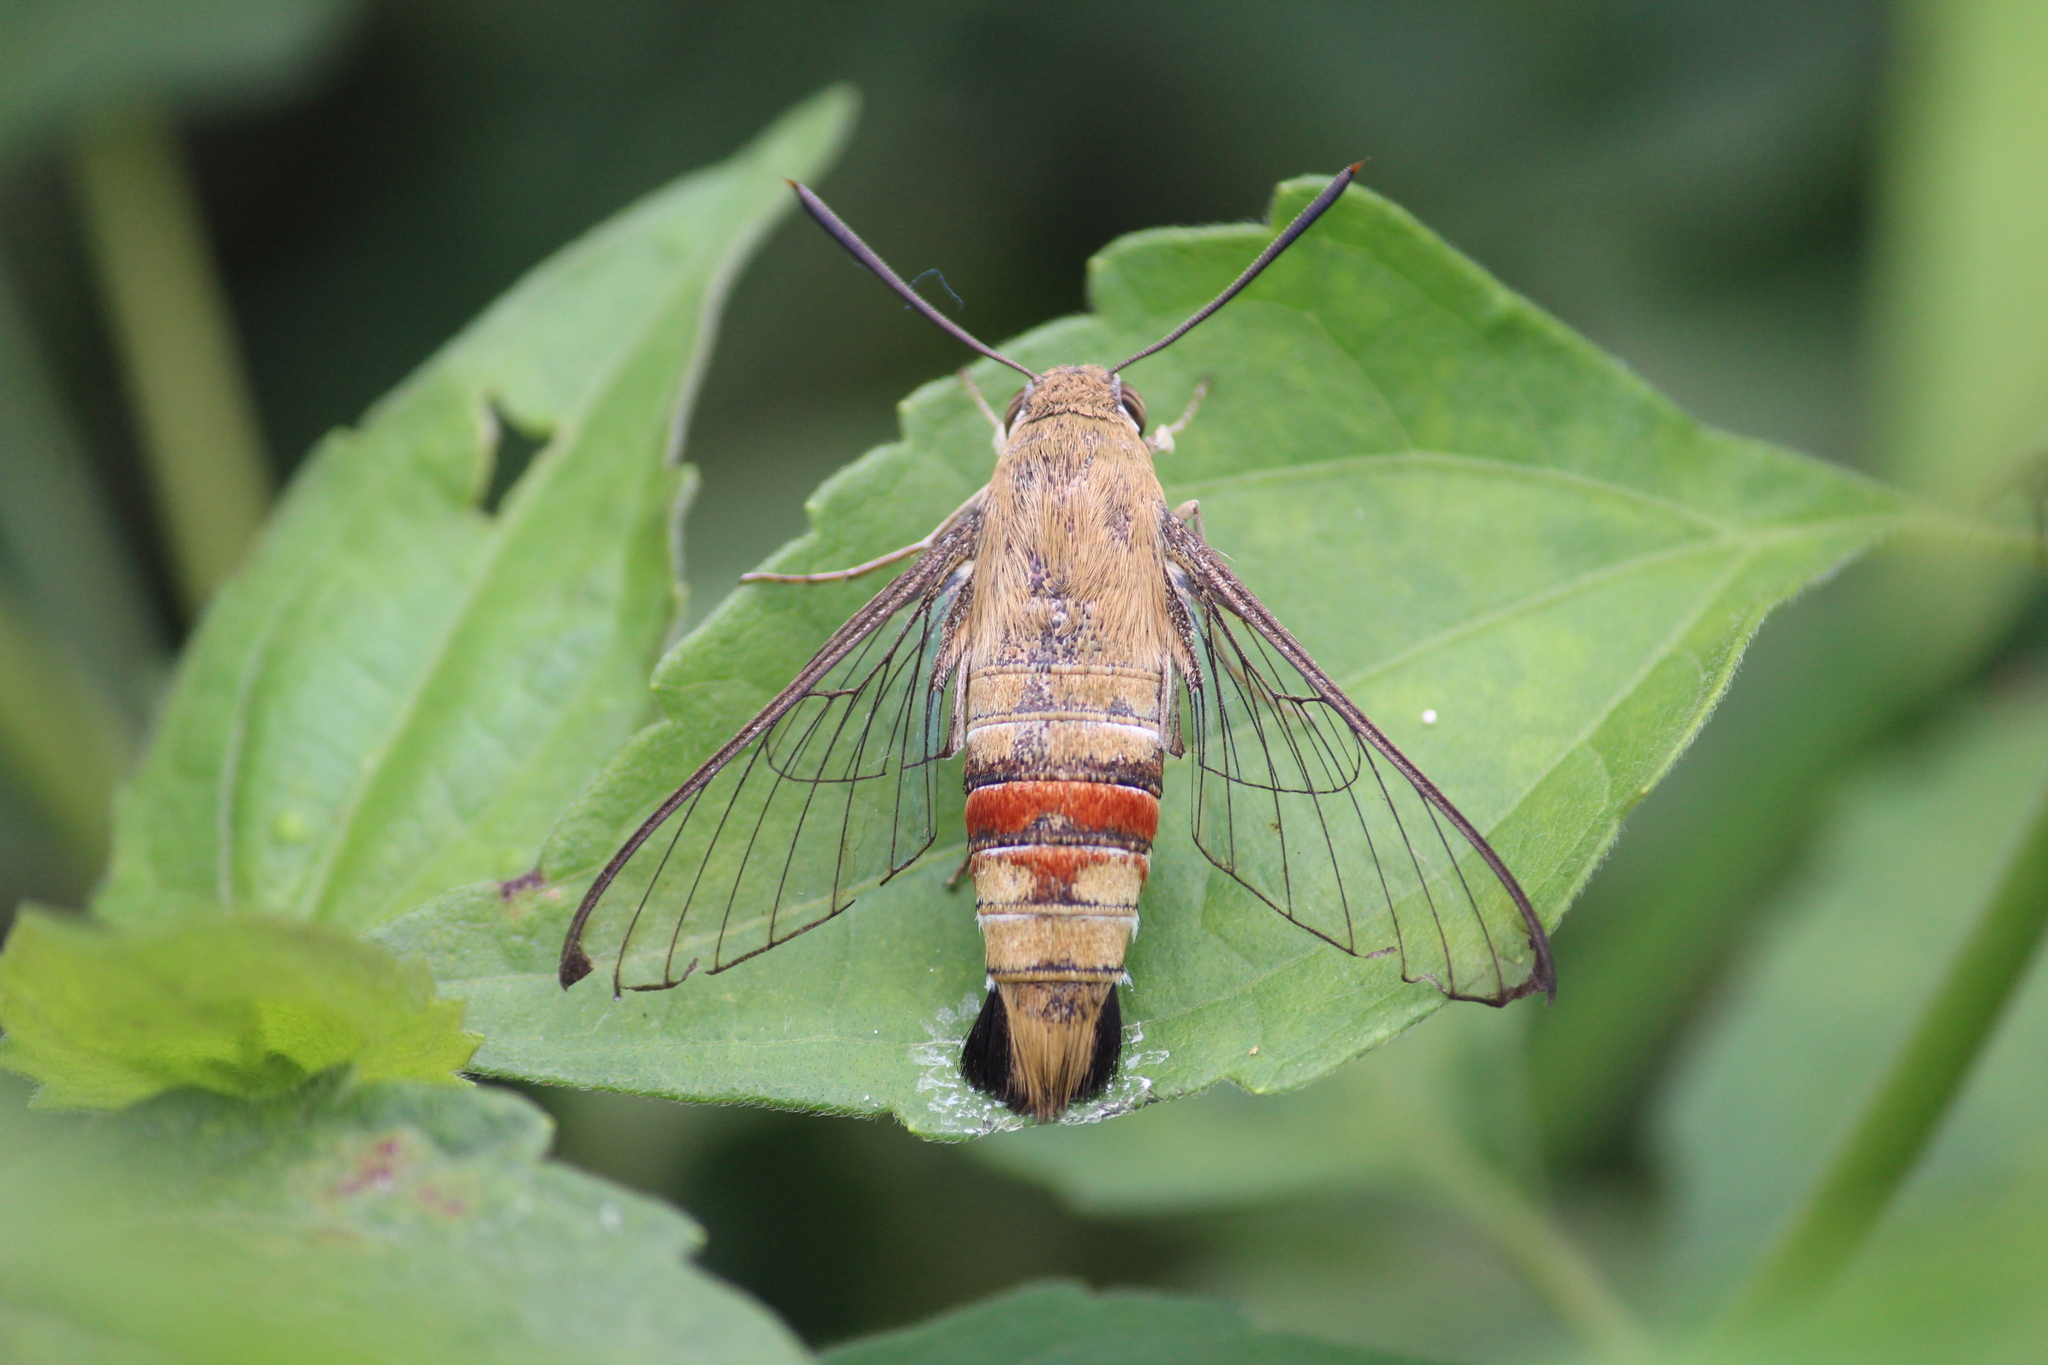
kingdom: Animalia
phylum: Arthropoda
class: Insecta
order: Lepidoptera
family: Sphingidae
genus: Cephonodes
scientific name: Cephonodes hylas
